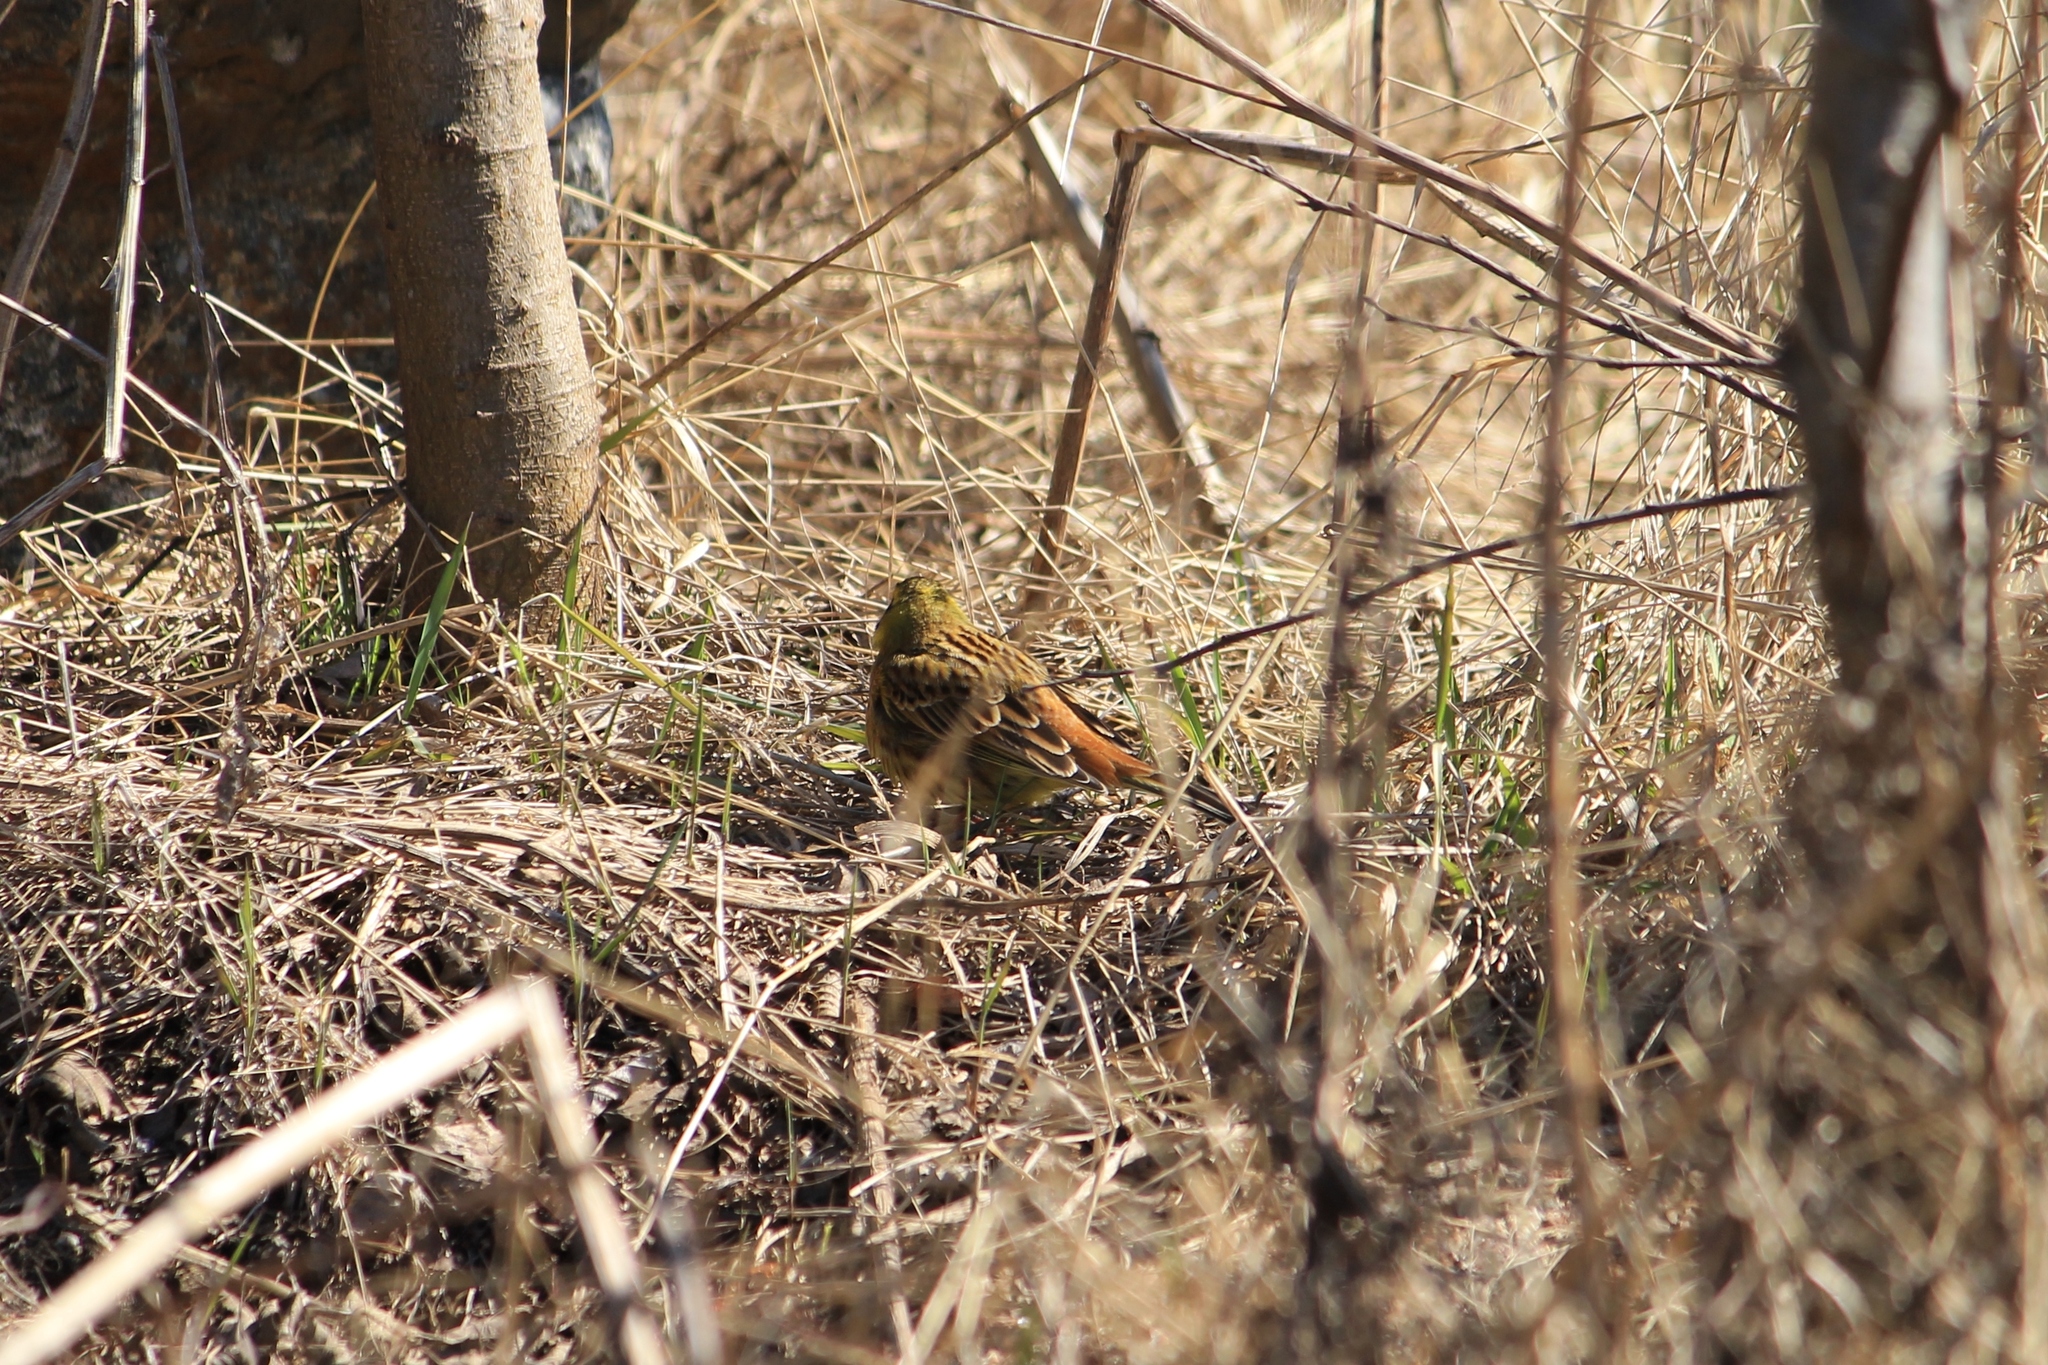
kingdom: Animalia
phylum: Chordata
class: Aves
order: Passeriformes
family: Emberizidae
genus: Emberiza
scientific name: Emberiza citrinella
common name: Yellowhammer
